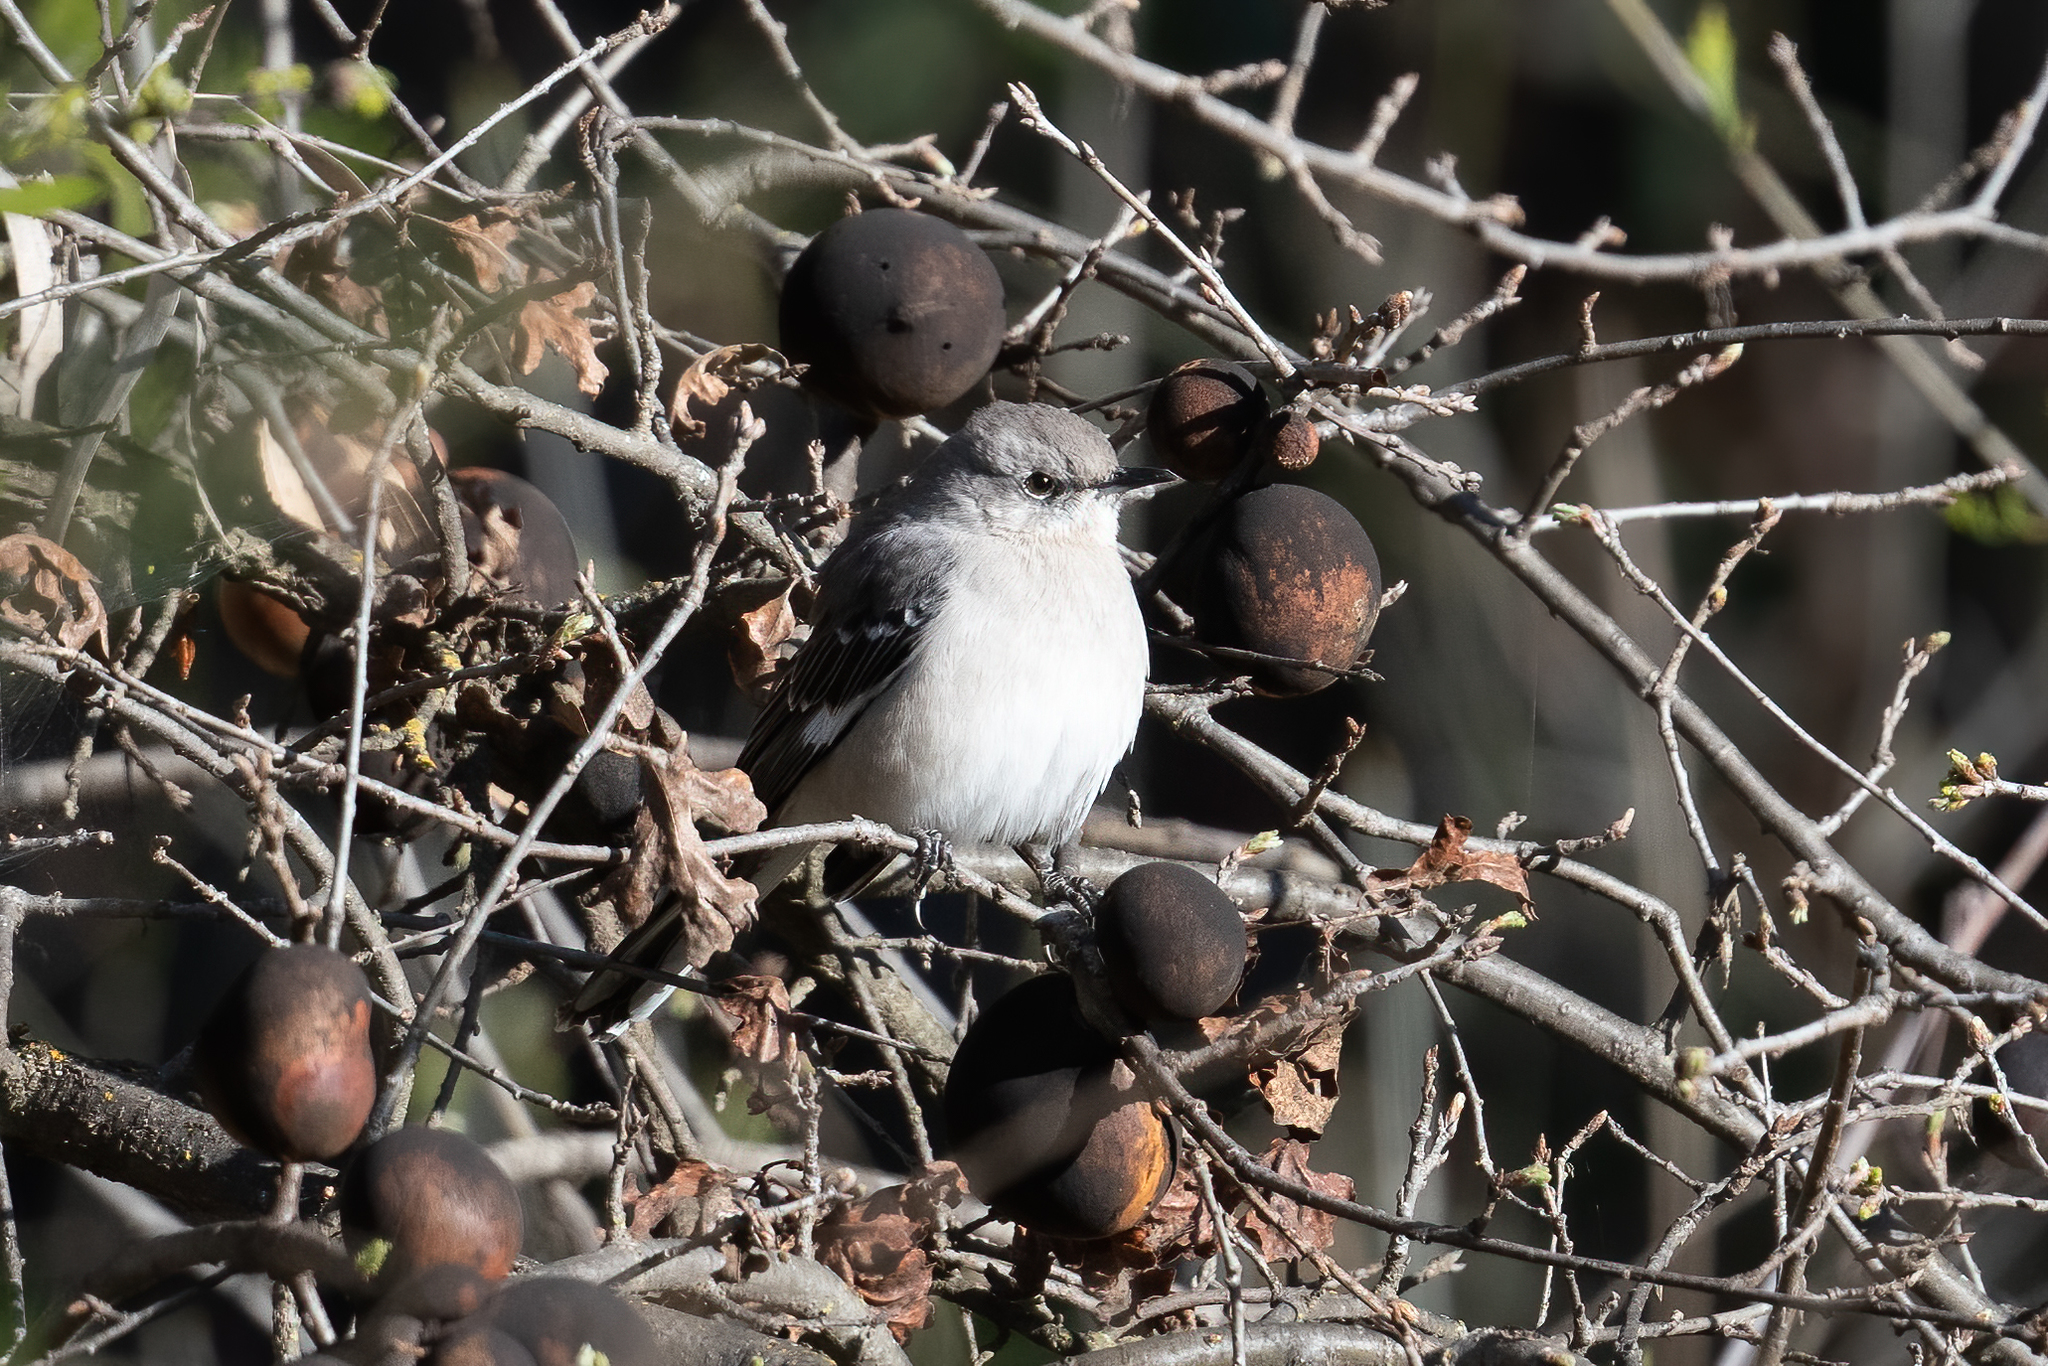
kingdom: Animalia
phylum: Chordata
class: Aves
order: Passeriformes
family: Mimidae
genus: Mimus
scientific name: Mimus polyglottos
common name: Northern mockingbird
